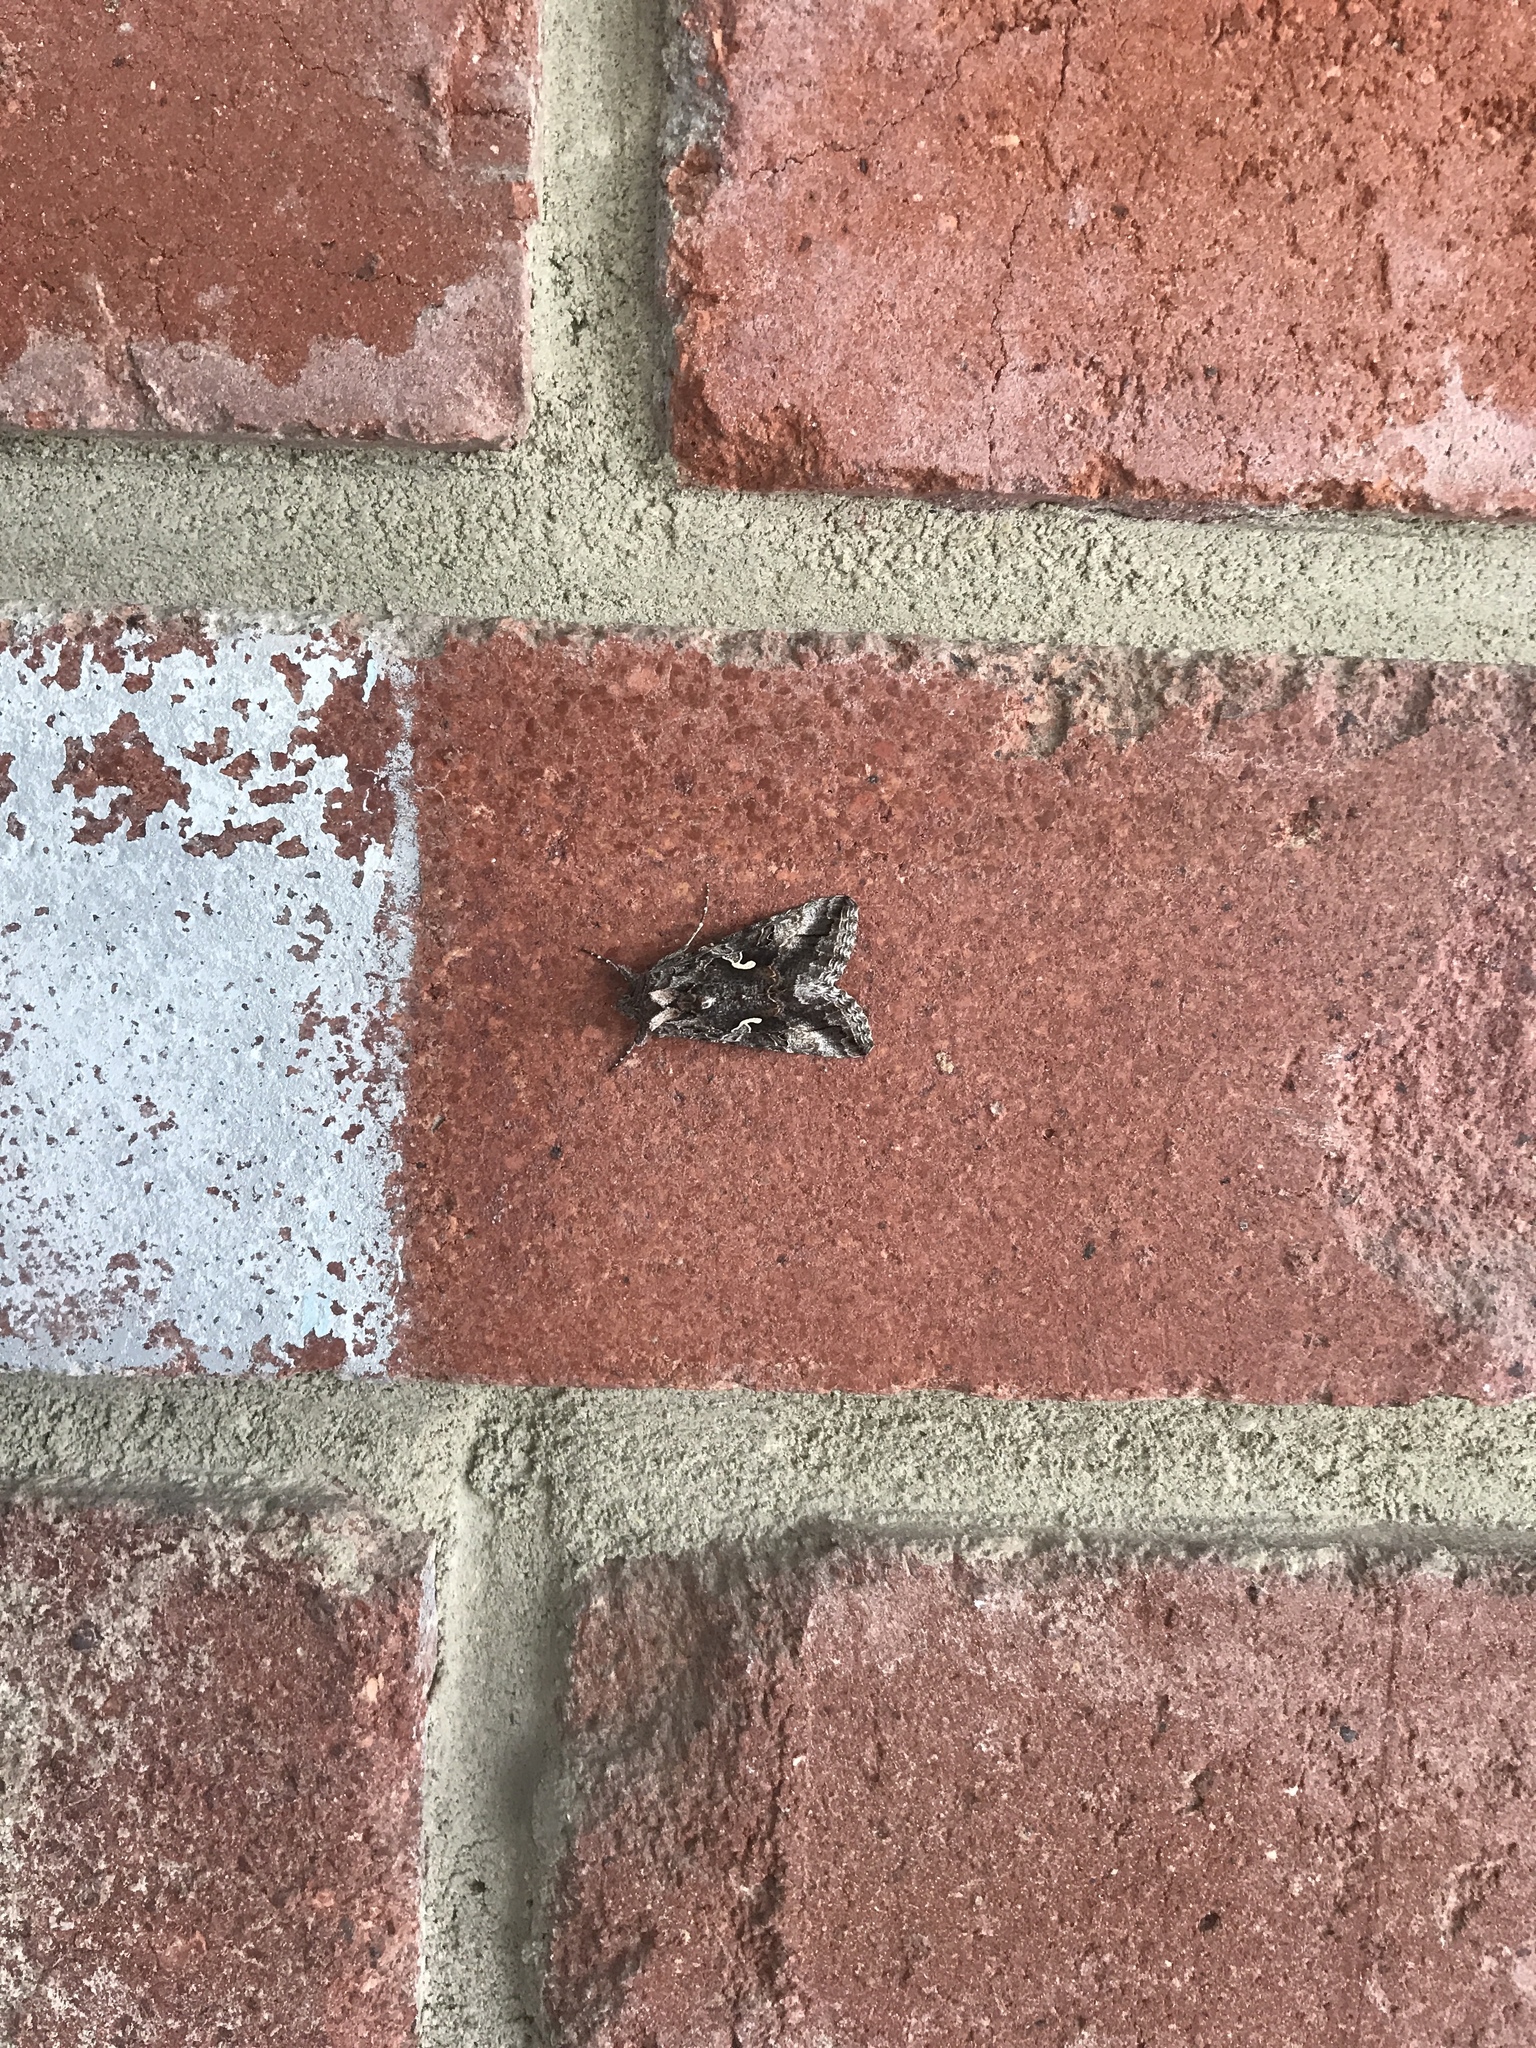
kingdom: Animalia
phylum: Arthropoda
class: Insecta
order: Lepidoptera
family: Noctuidae
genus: Autographa
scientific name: Autographa californica
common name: Alfalfa looper
